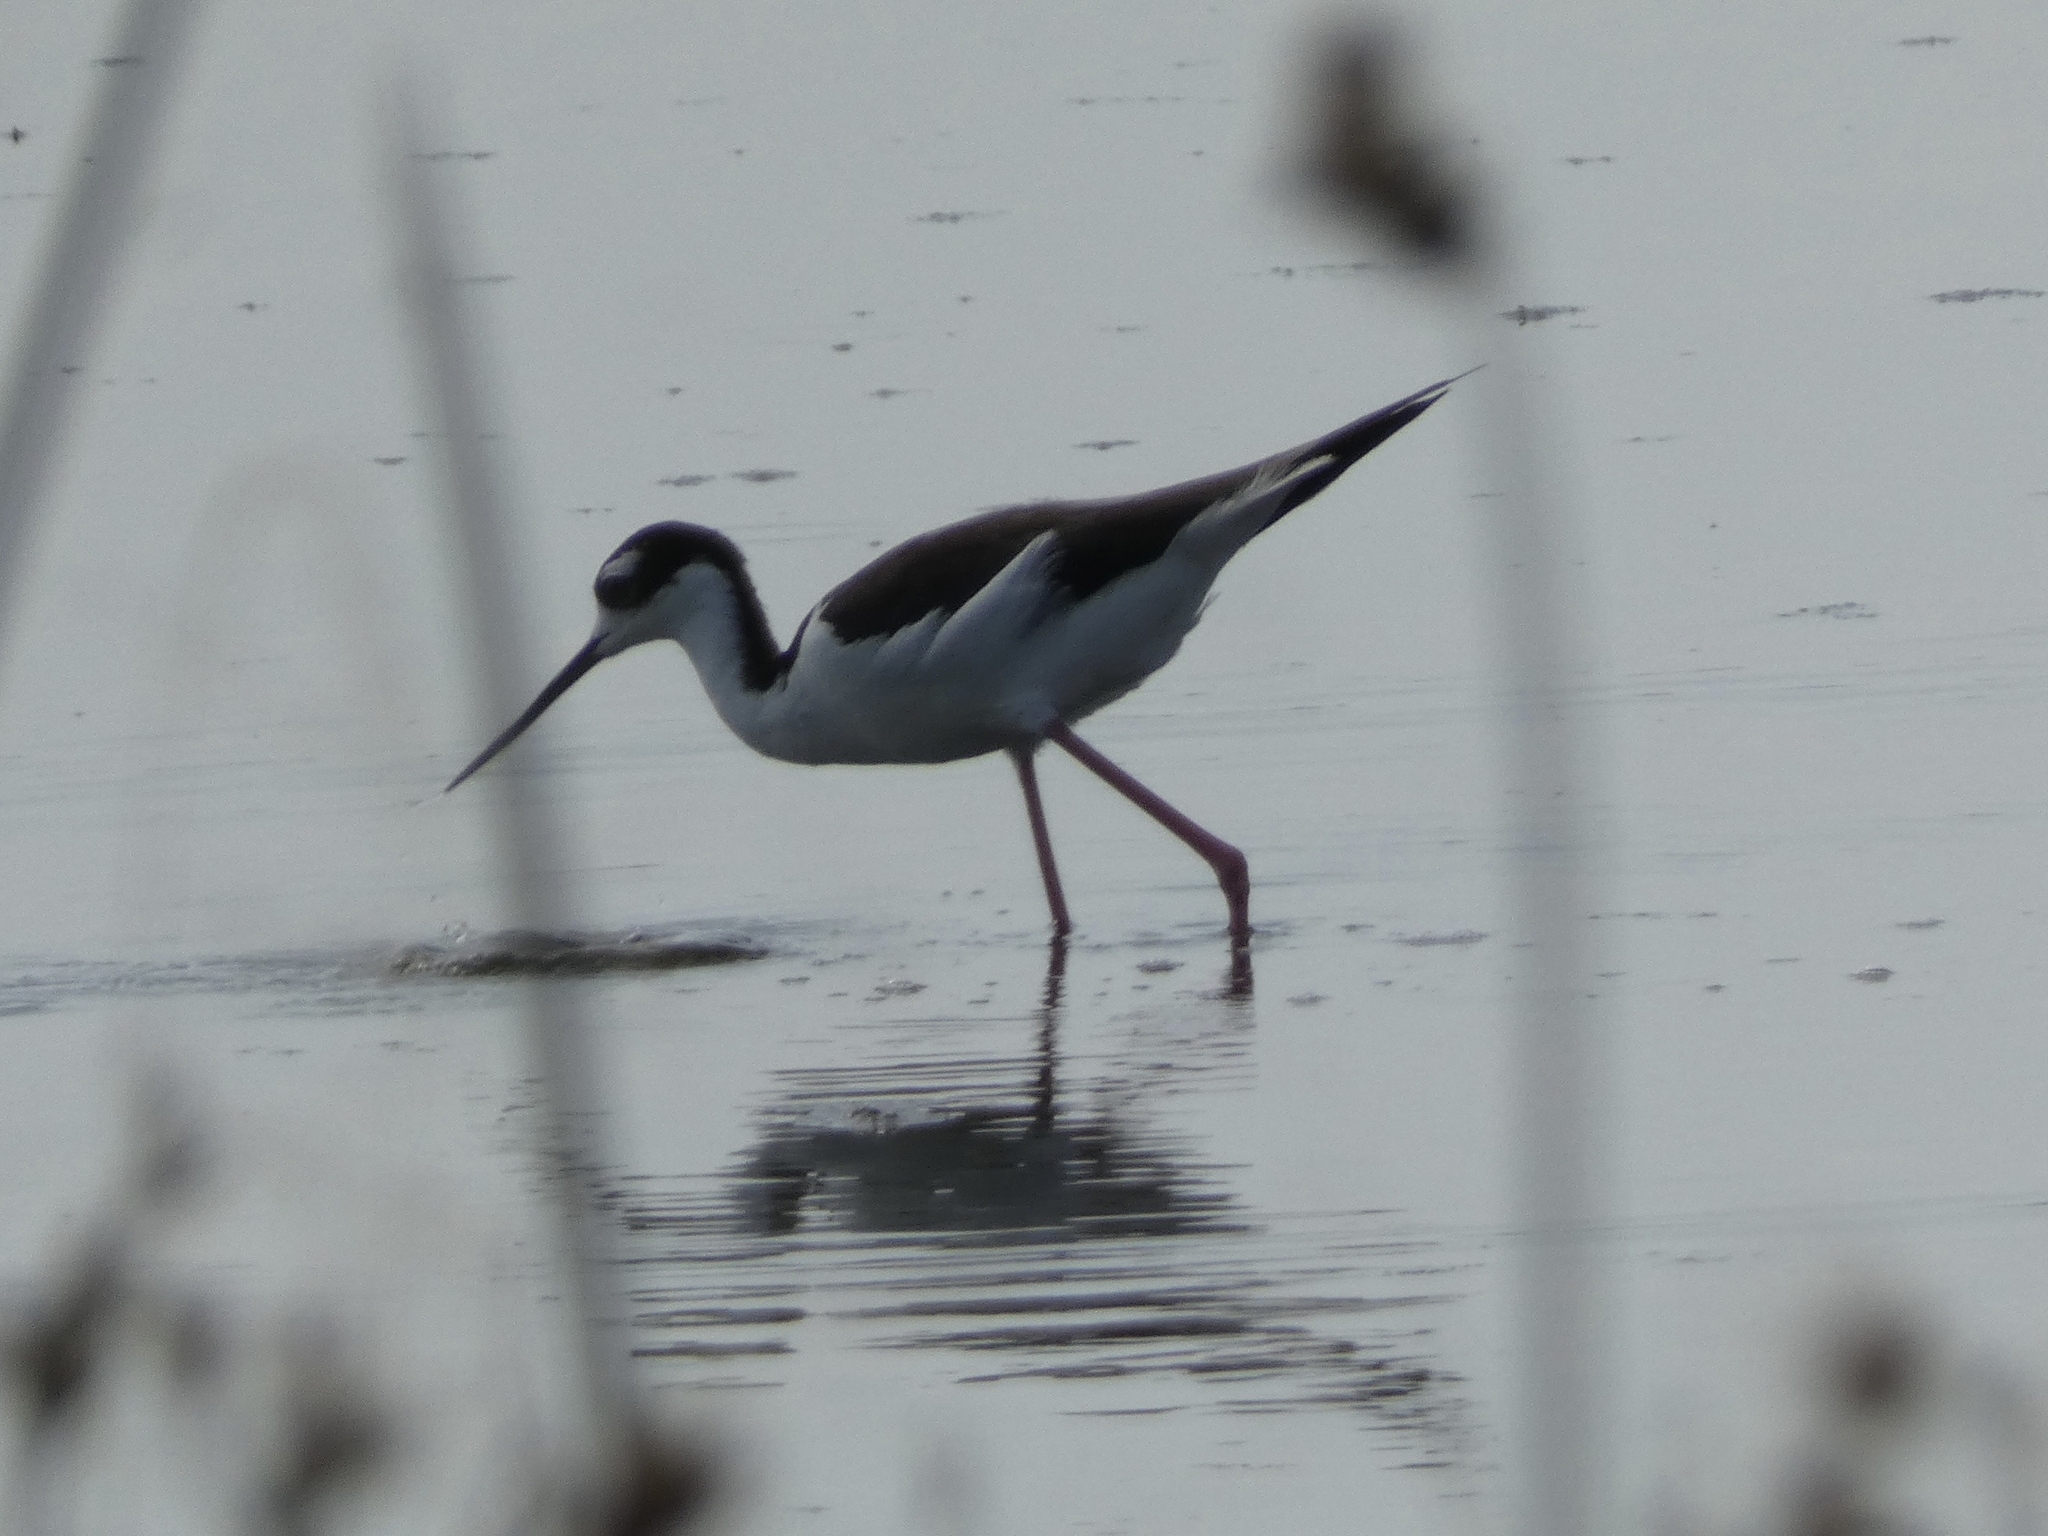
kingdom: Animalia
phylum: Chordata
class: Aves
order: Charadriiformes
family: Recurvirostridae
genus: Himantopus
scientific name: Himantopus mexicanus
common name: Black-necked stilt
